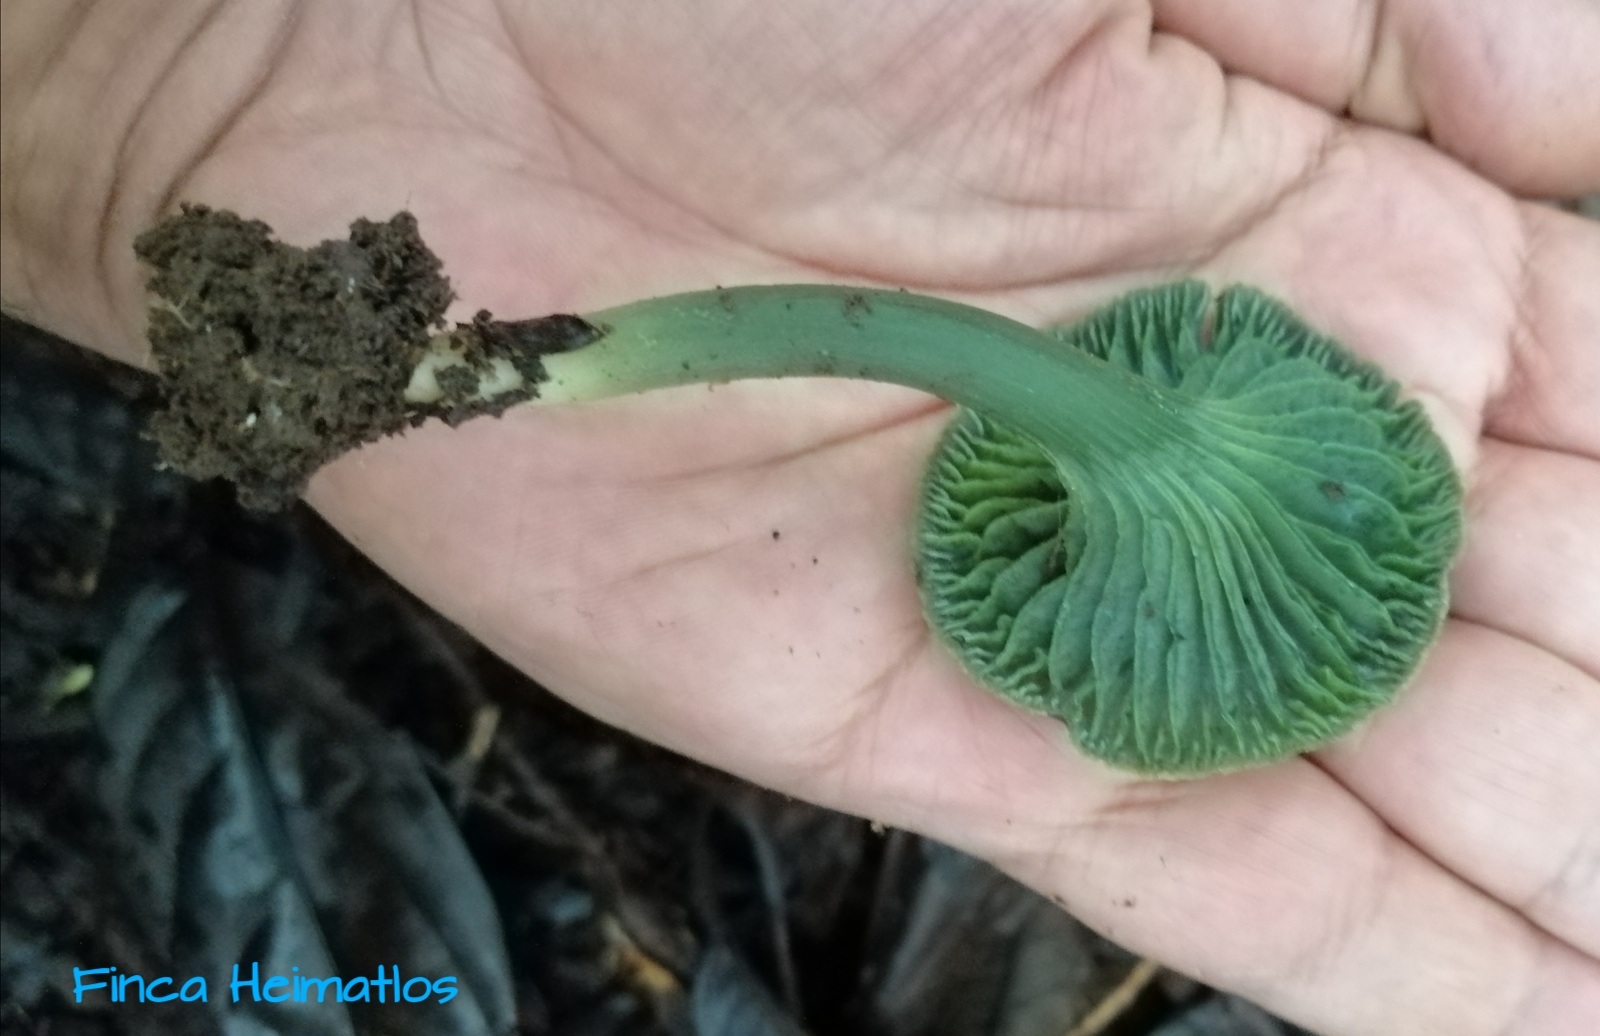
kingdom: Fungi
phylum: Basidiomycota
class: Agaricomycetes
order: Agaricales
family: Hygrophoraceae
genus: Hygrocybe
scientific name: Hygrocybe viridiphylla
